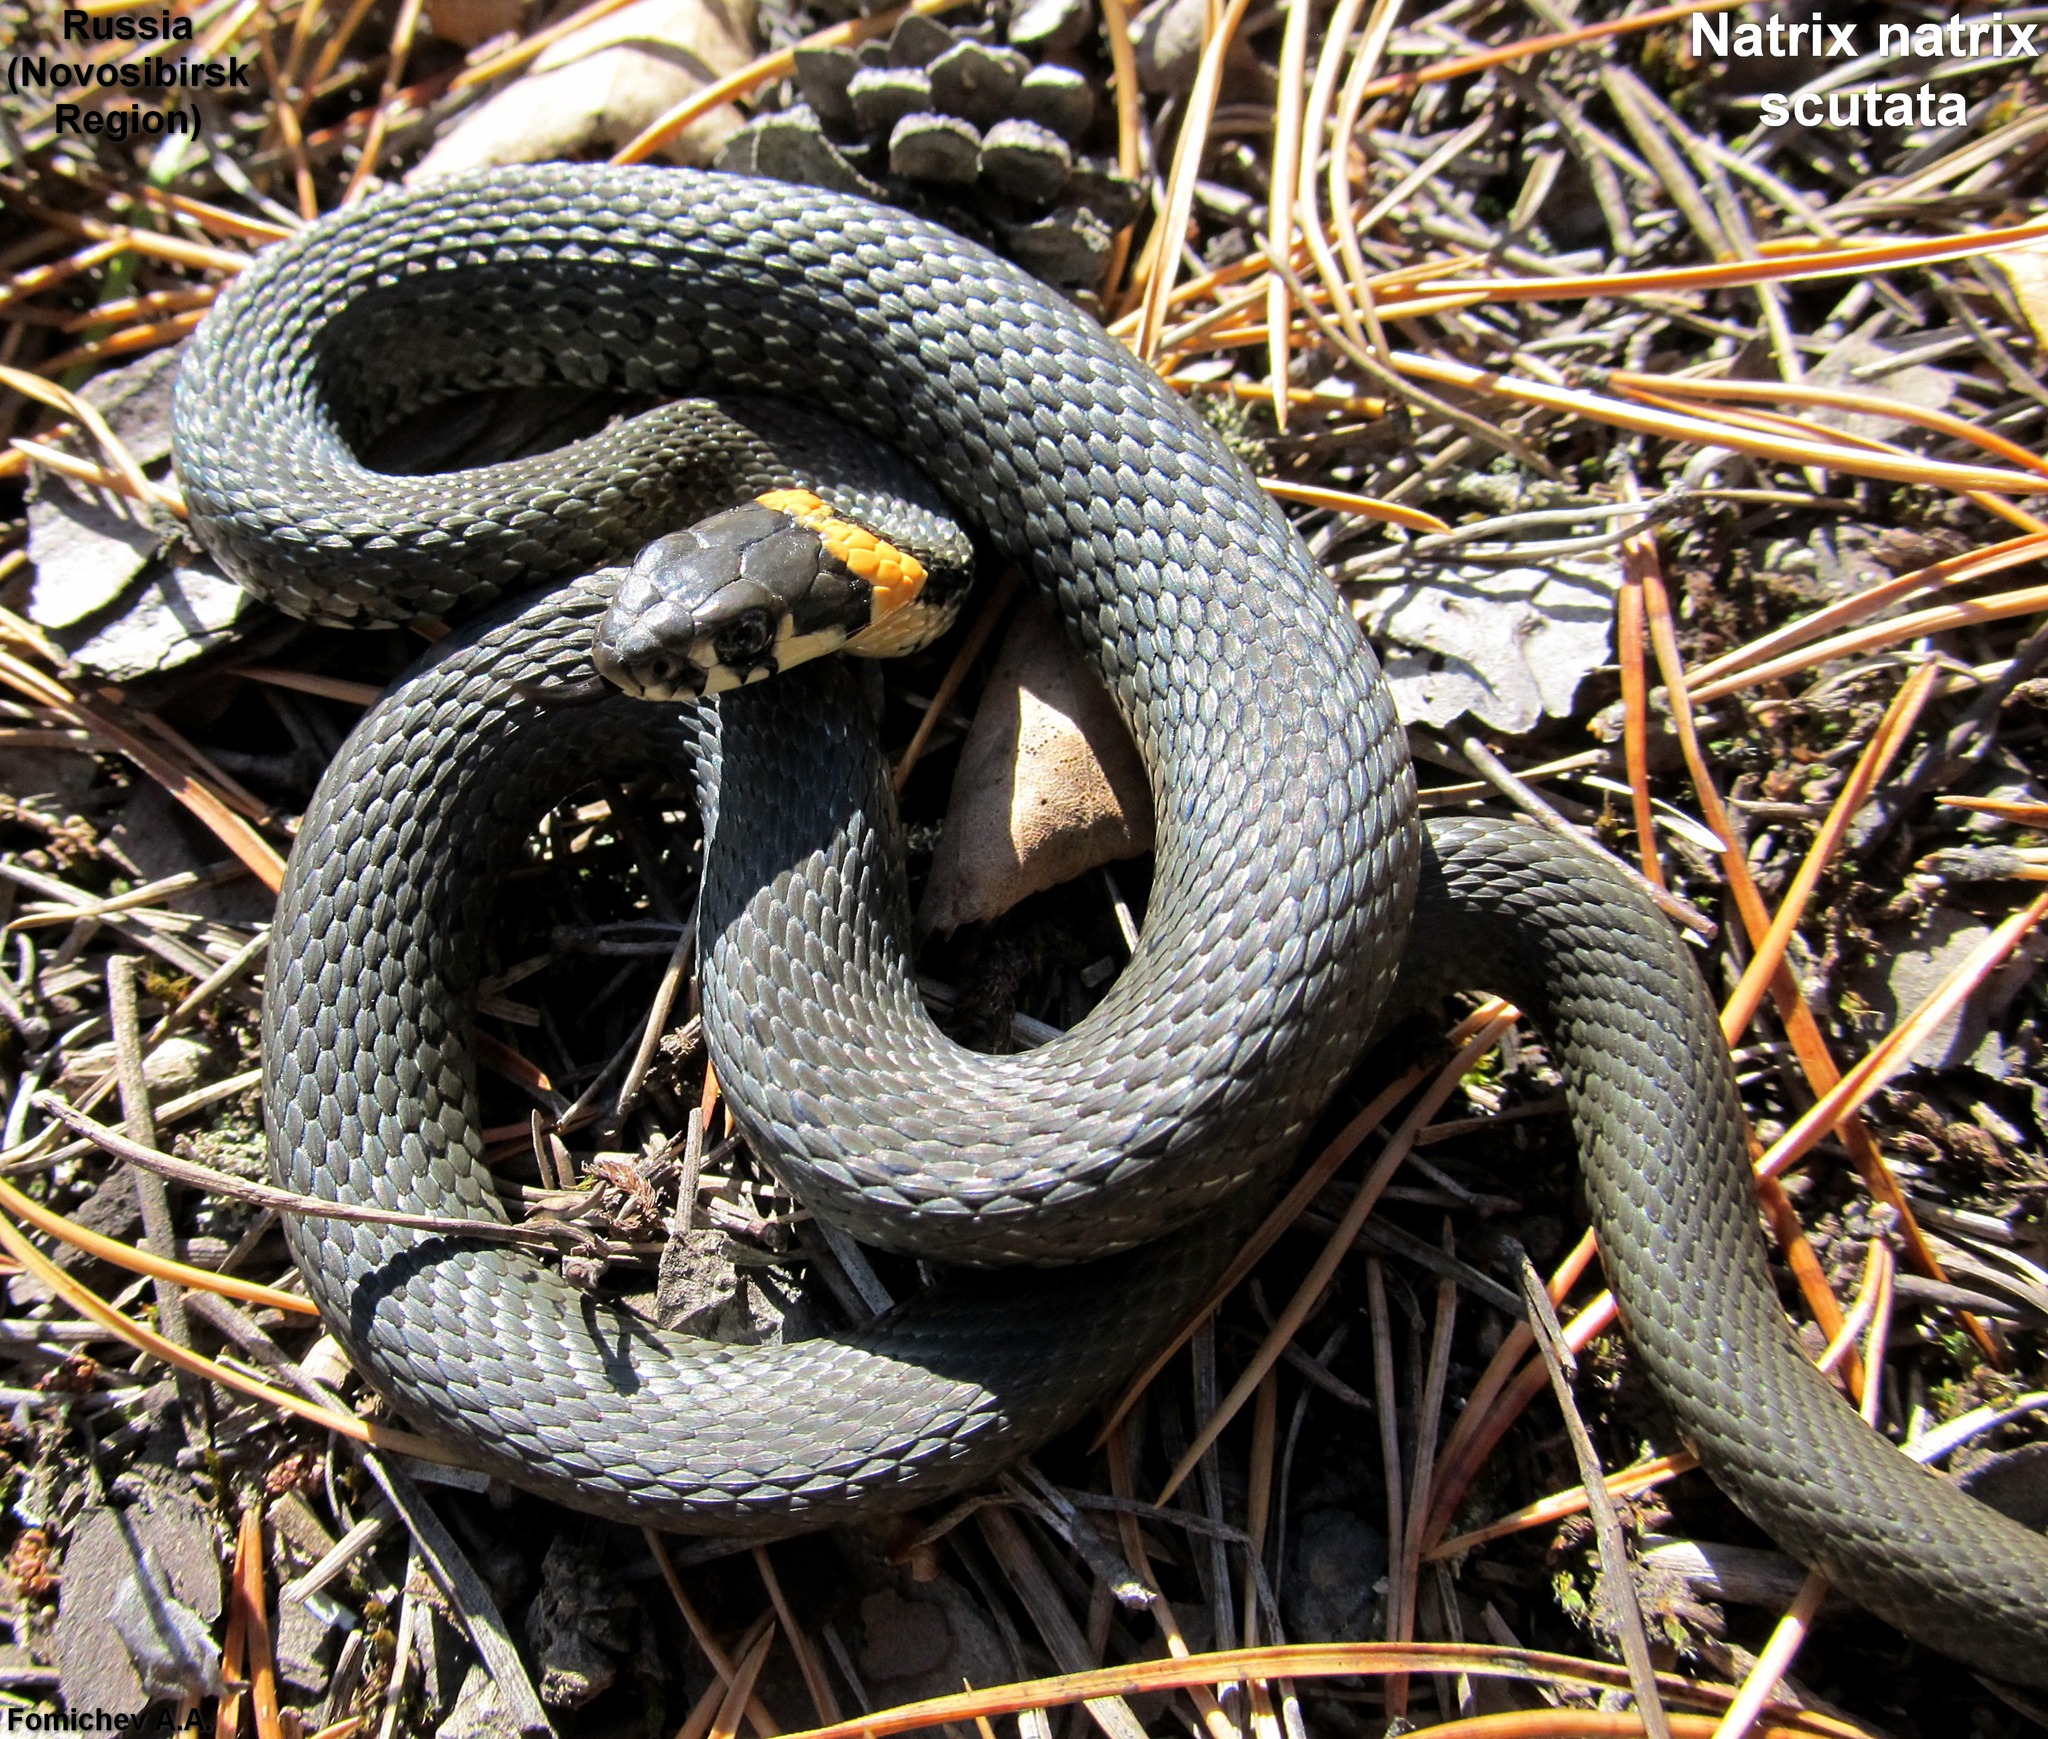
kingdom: Animalia
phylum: Chordata
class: Squamata
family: Colubridae
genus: Natrix
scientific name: Natrix natrix
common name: Grass snake
